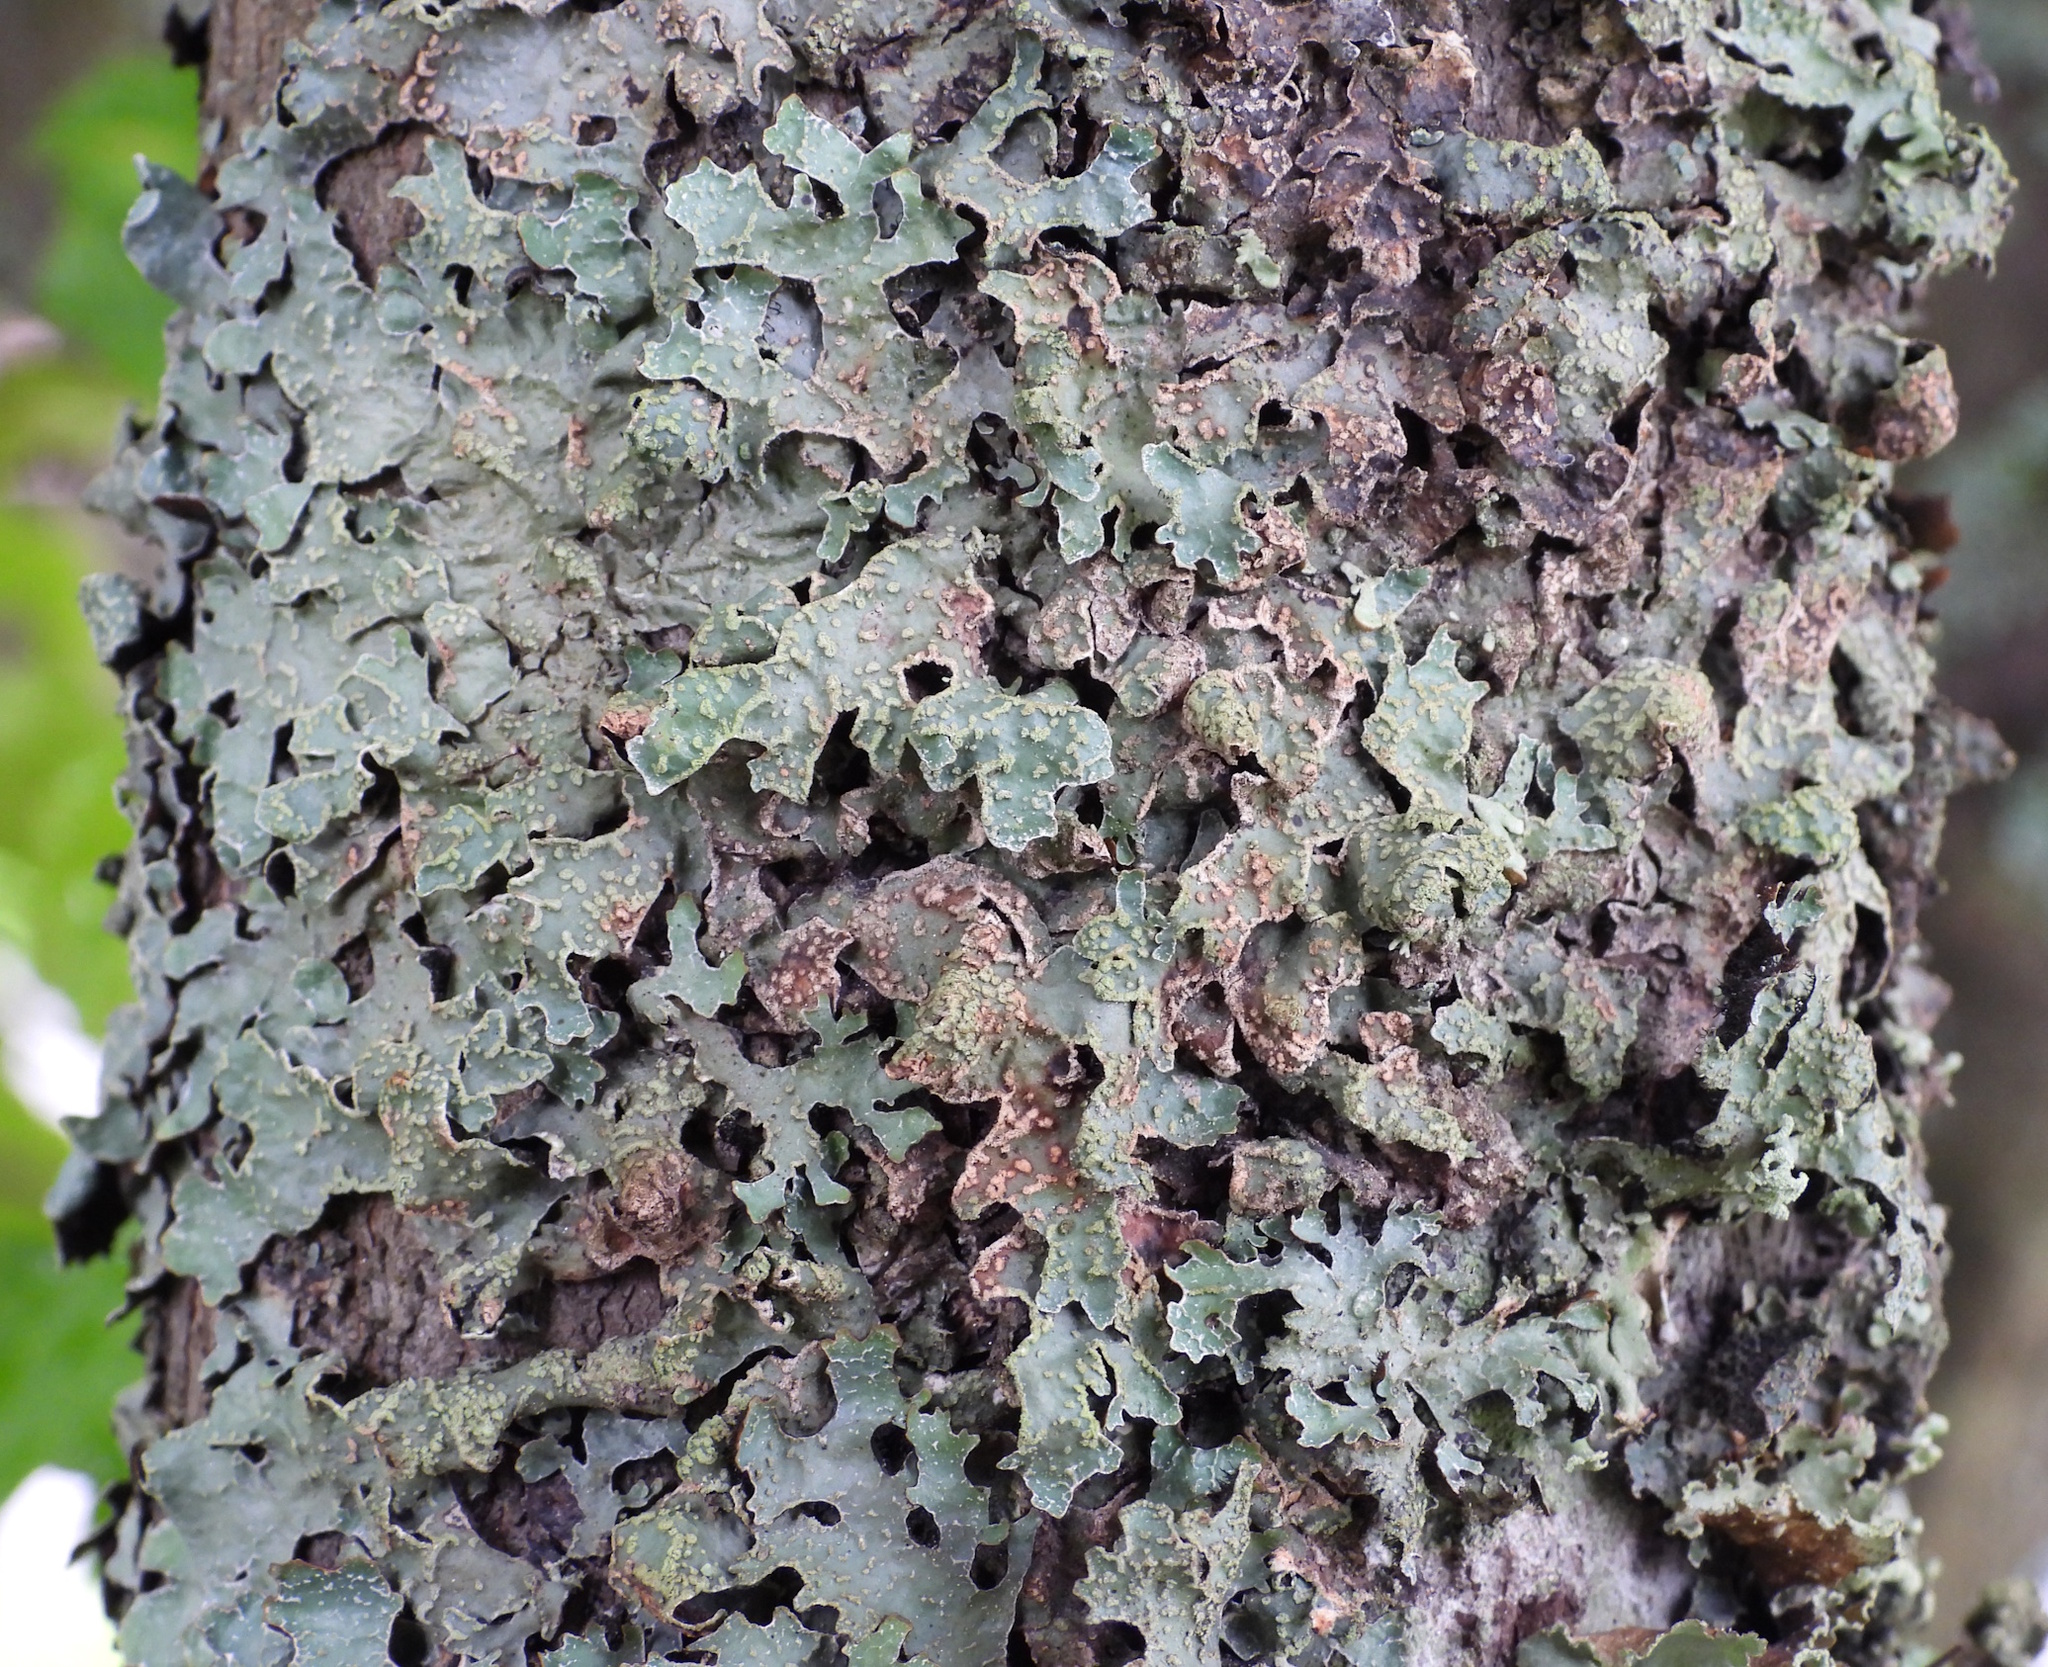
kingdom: Fungi
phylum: Ascomycota
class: Lecanoromycetes
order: Lecanorales
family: Parmeliaceae
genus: Parmelia
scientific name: Parmelia sulcata
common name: Netted shield lichen
